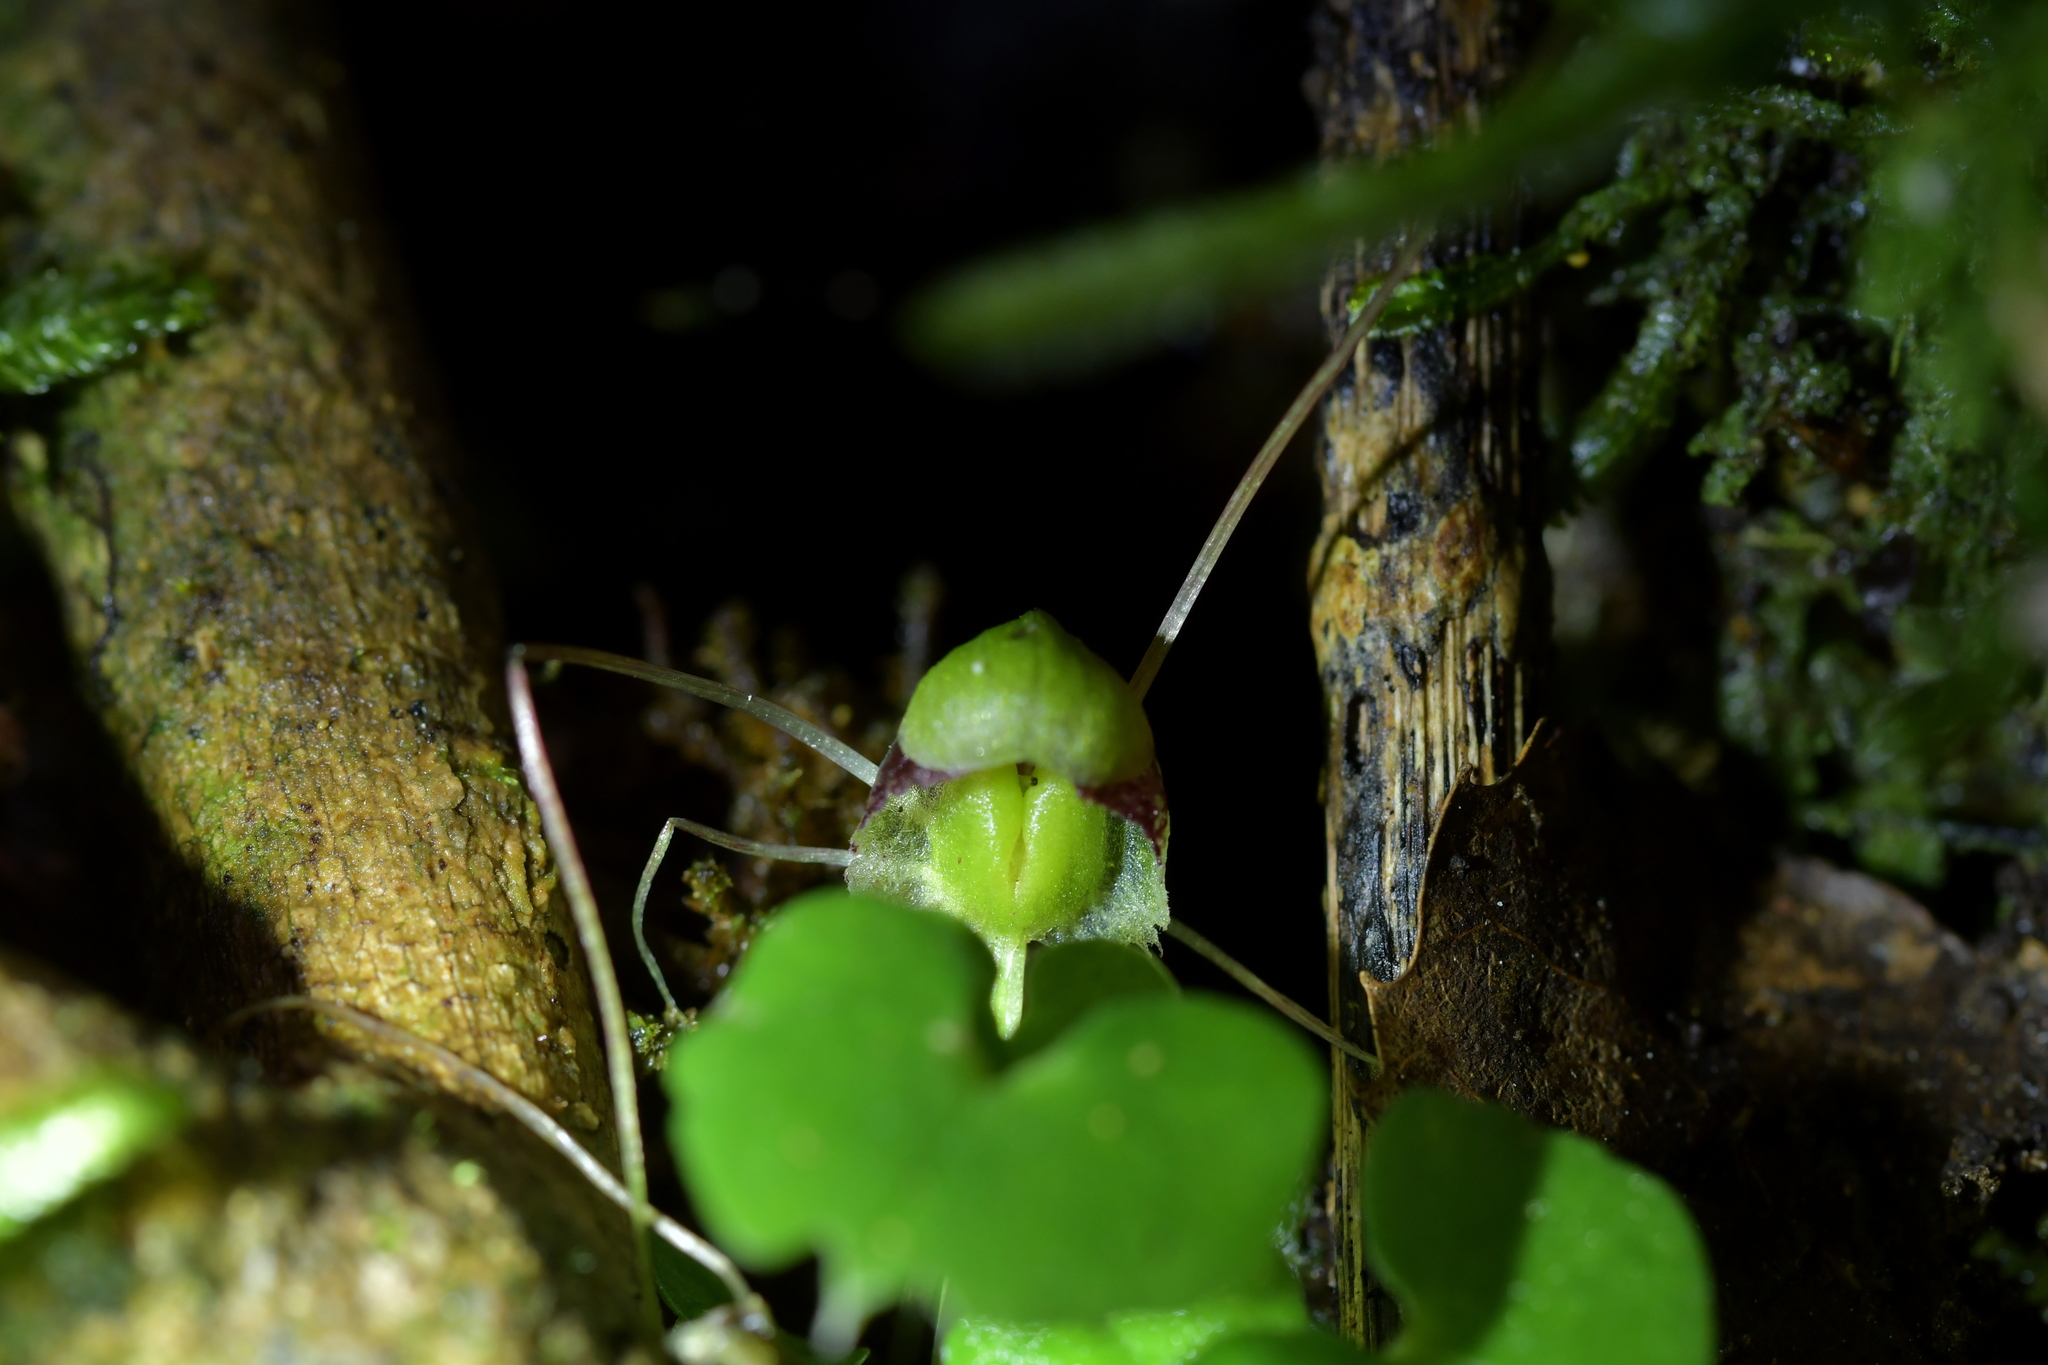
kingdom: Plantae
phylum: Tracheophyta
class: Liliopsida
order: Asparagales
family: Orchidaceae
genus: Corybas
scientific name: Corybas vitreus
